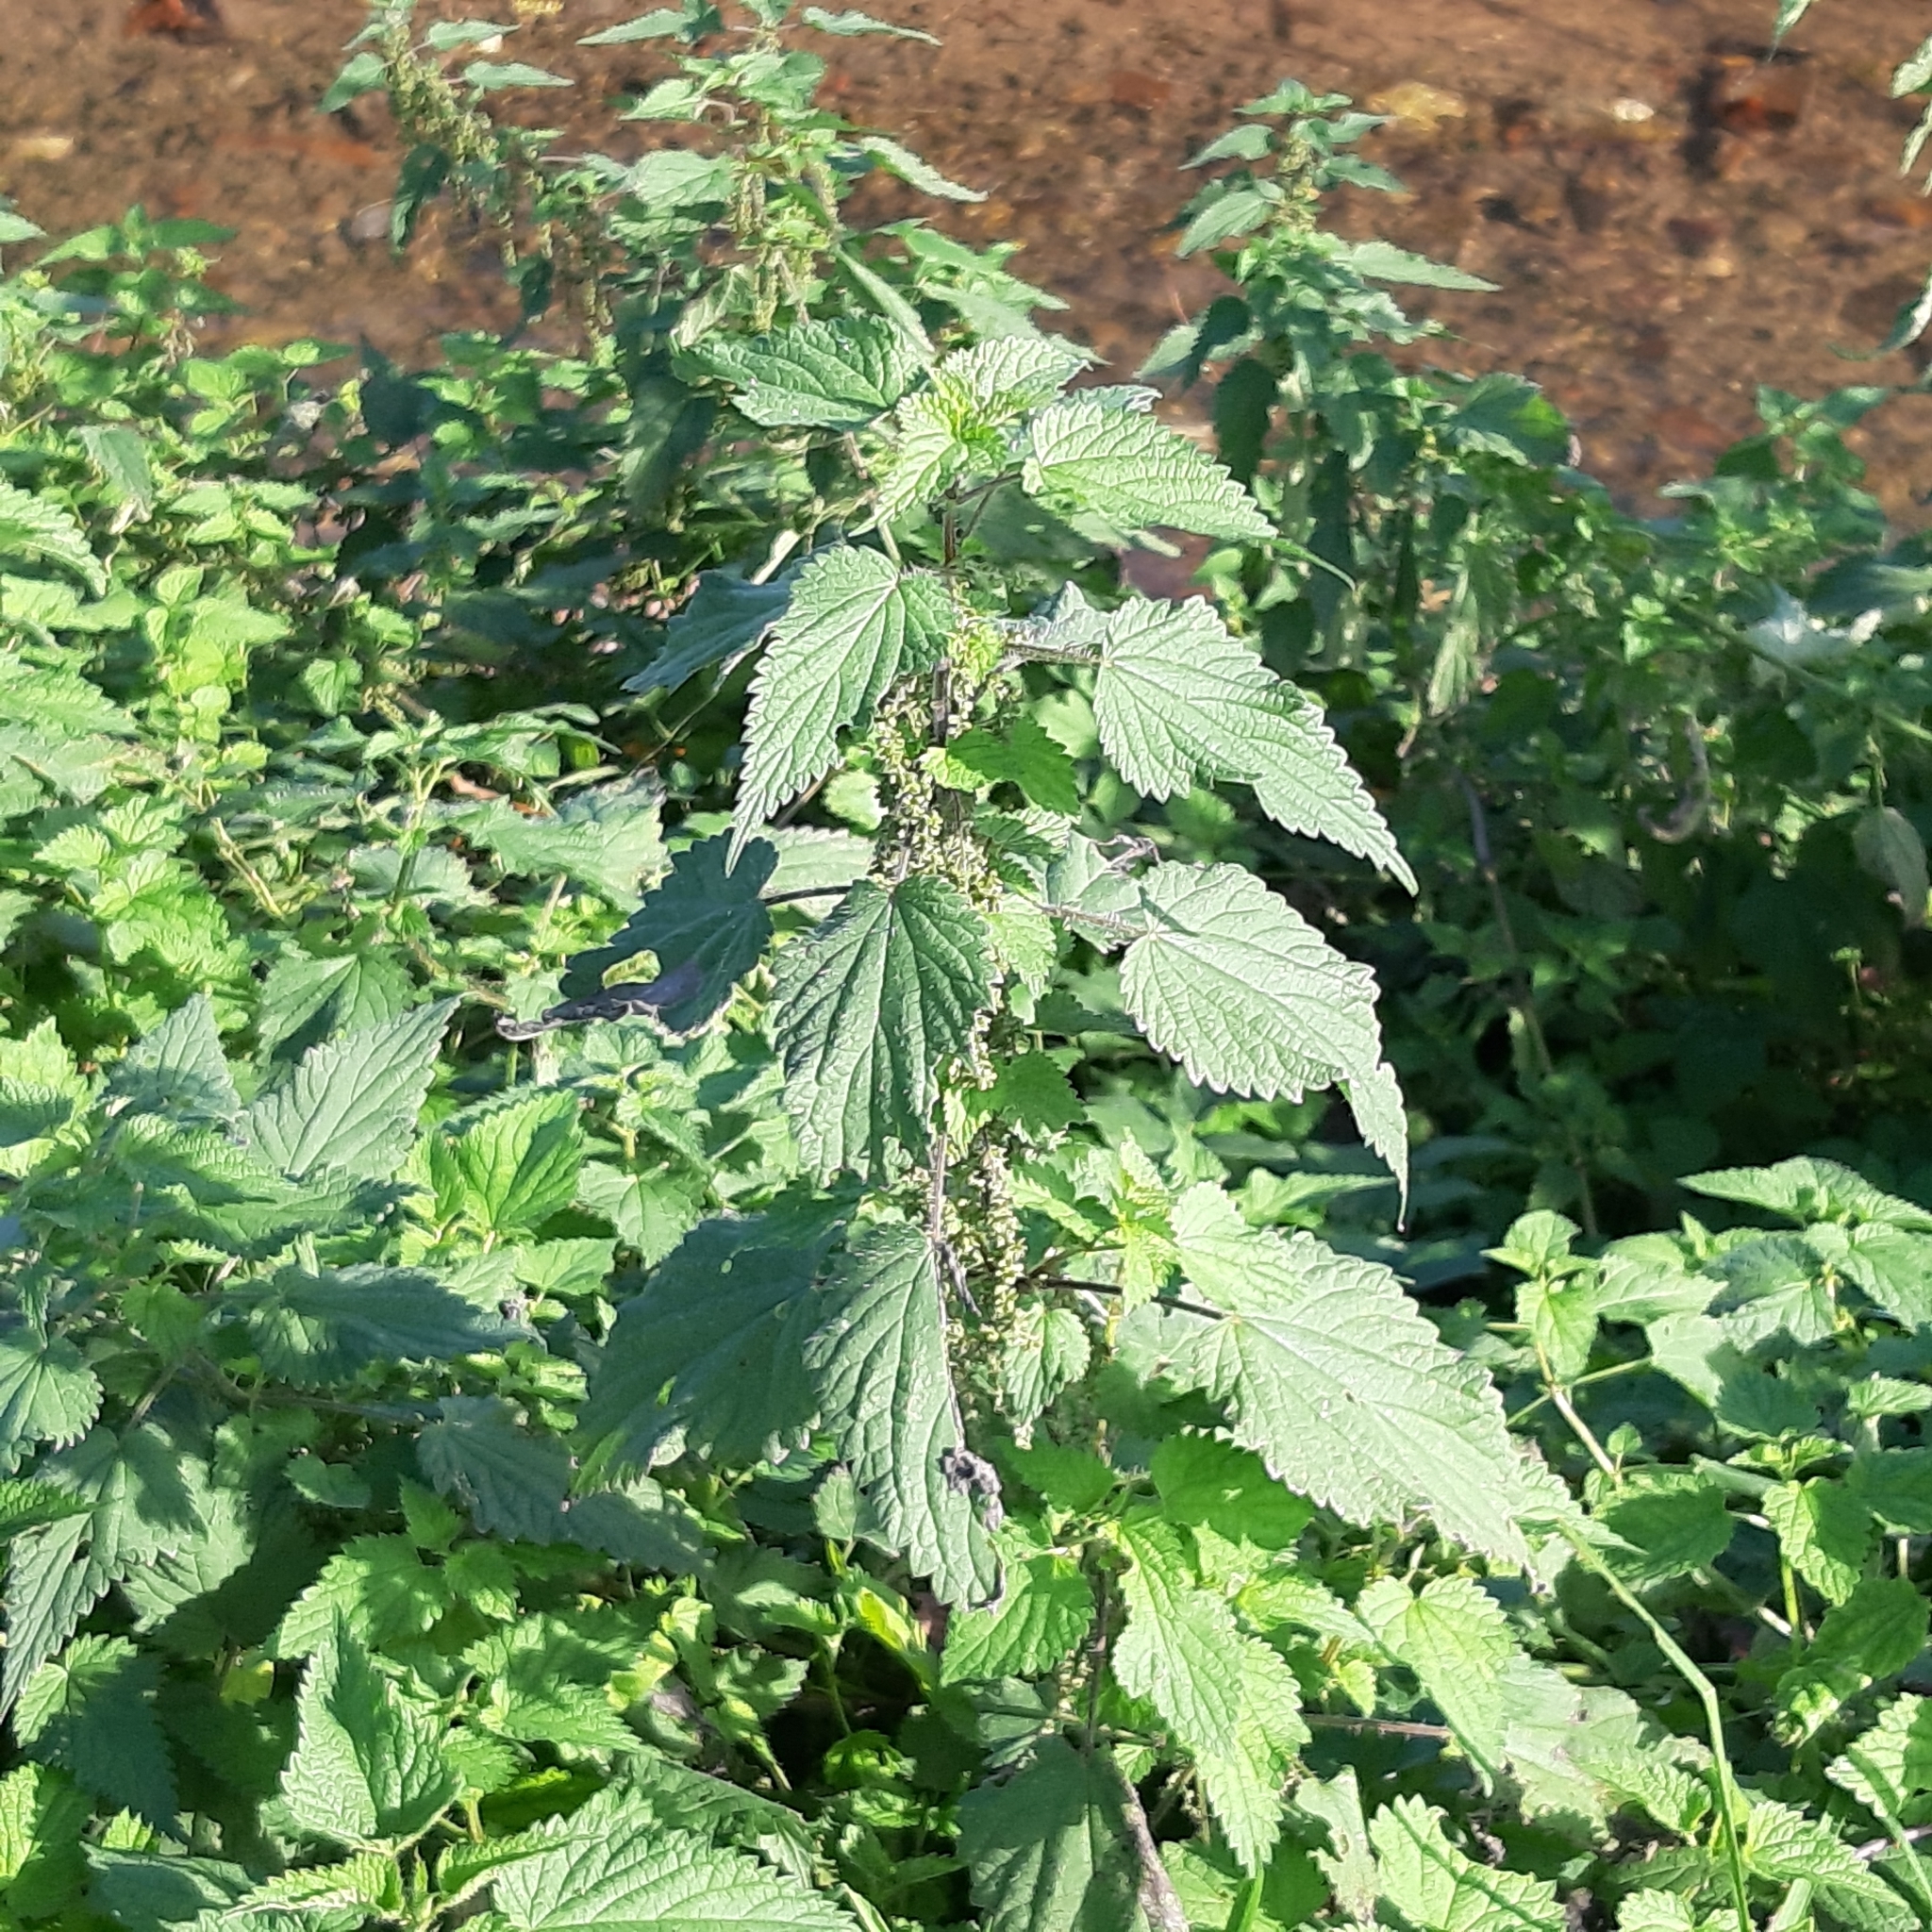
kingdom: Plantae
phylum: Tracheophyta
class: Magnoliopsida
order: Rosales
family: Urticaceae
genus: Urtica
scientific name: Urtica dioica
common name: Common nettle
